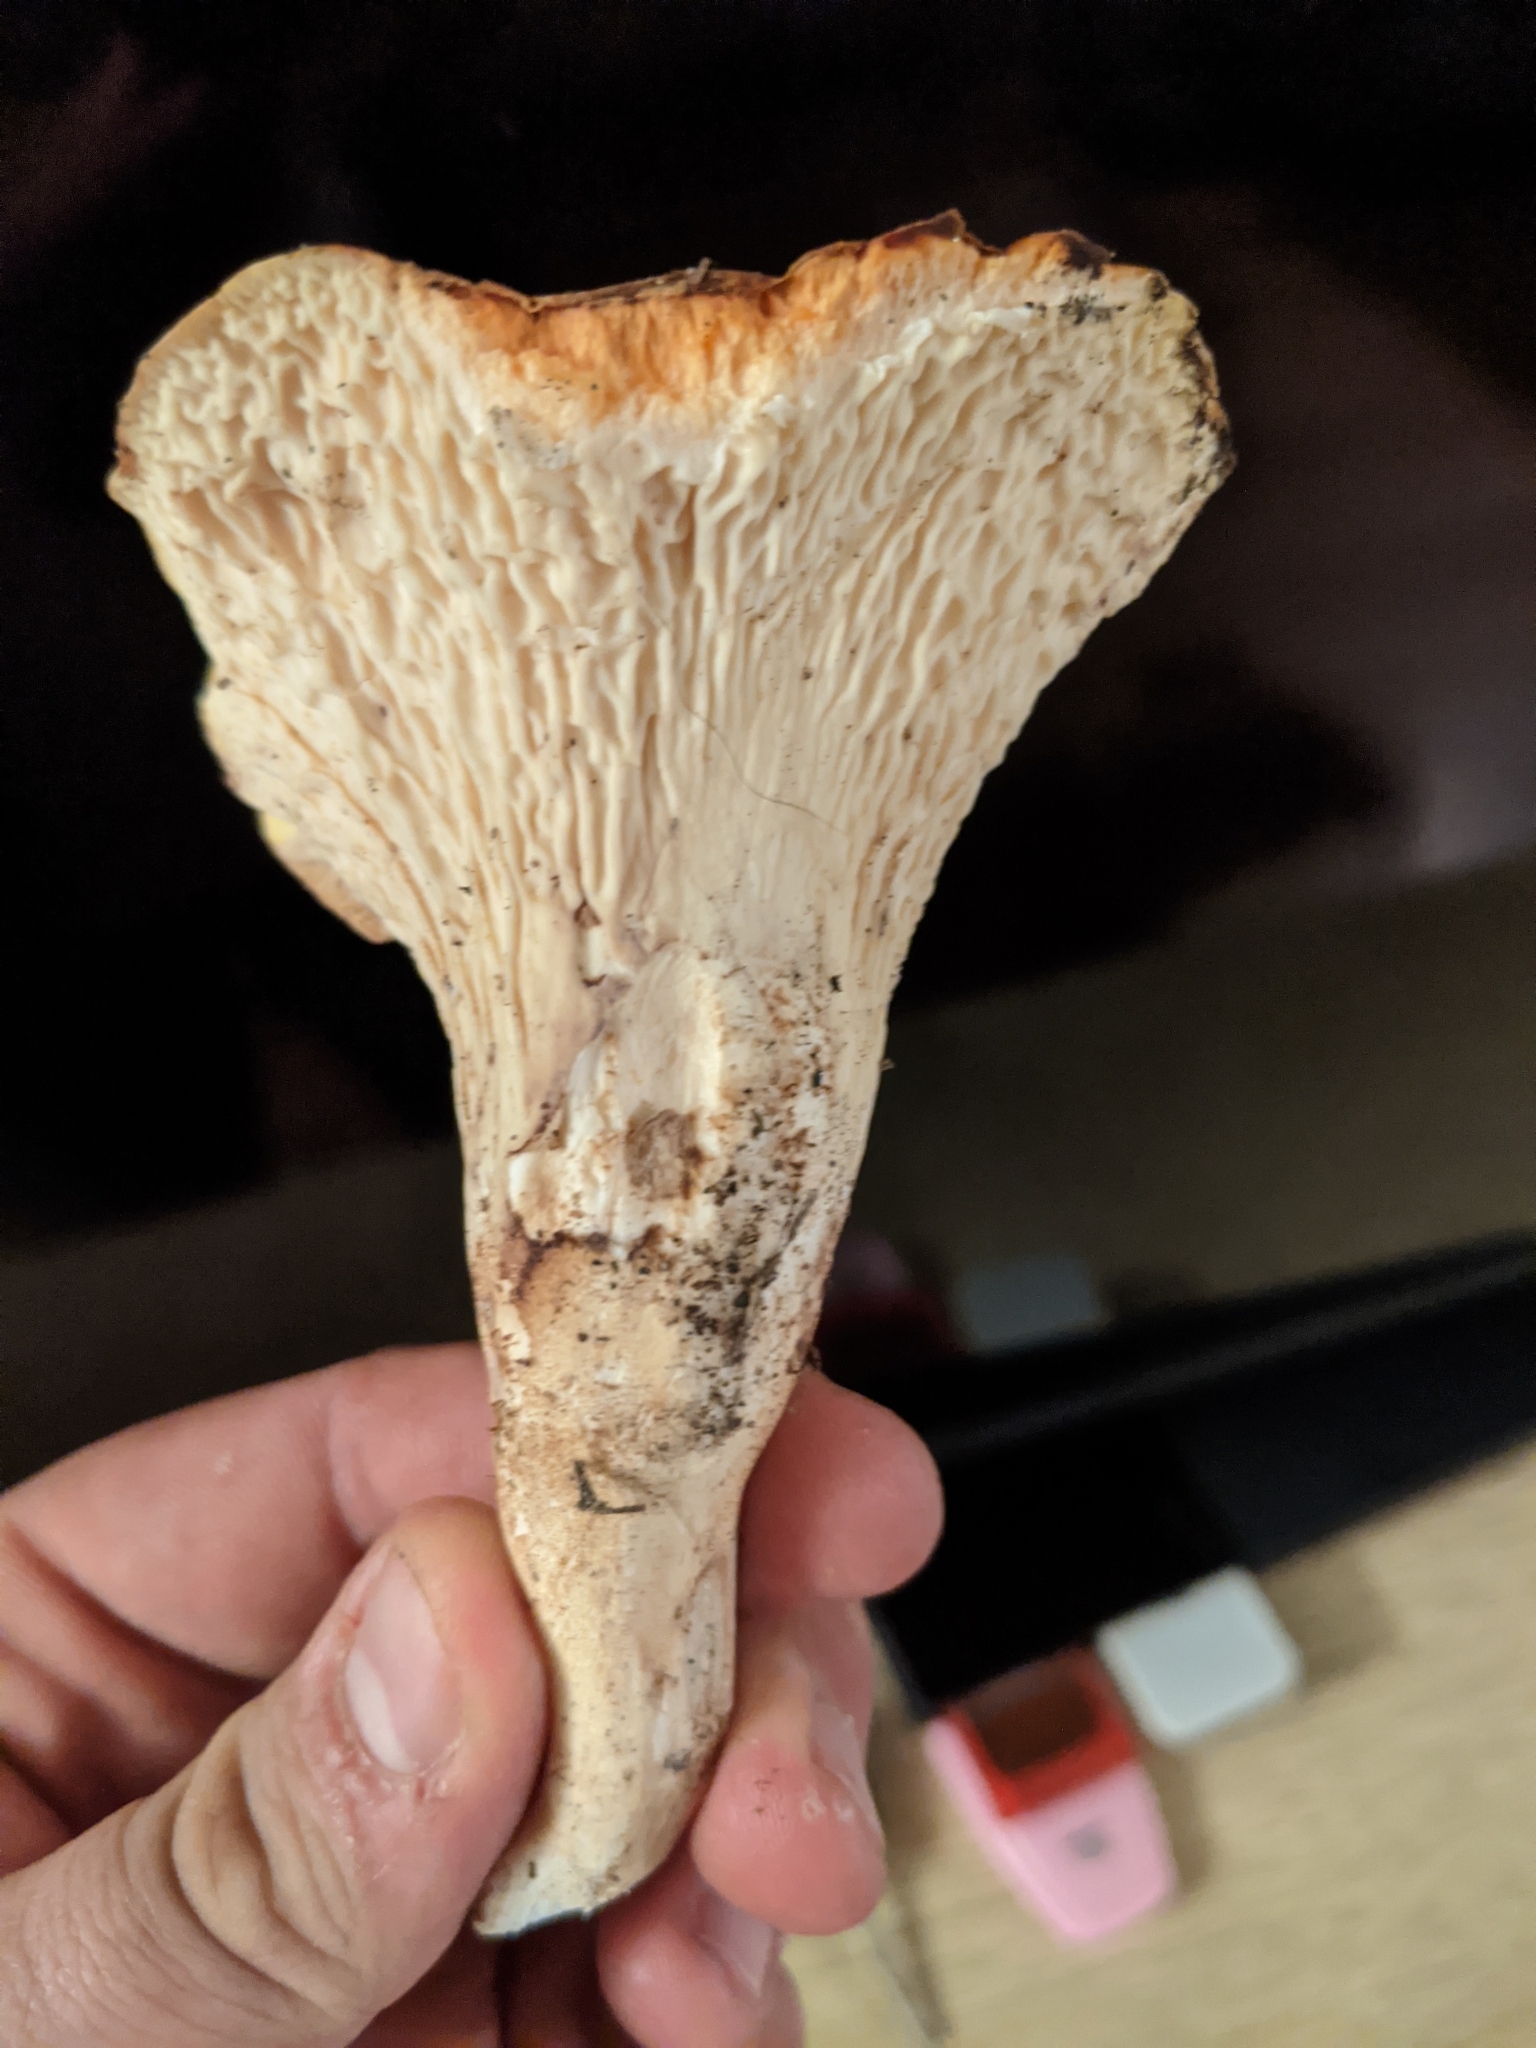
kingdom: Fungi
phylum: Basidiomycota
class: Agaricomycetes
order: Gomphales
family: Gomphaceae
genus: Turbinellus
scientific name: Turbinellus floccosus
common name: Scaly chanterelle
